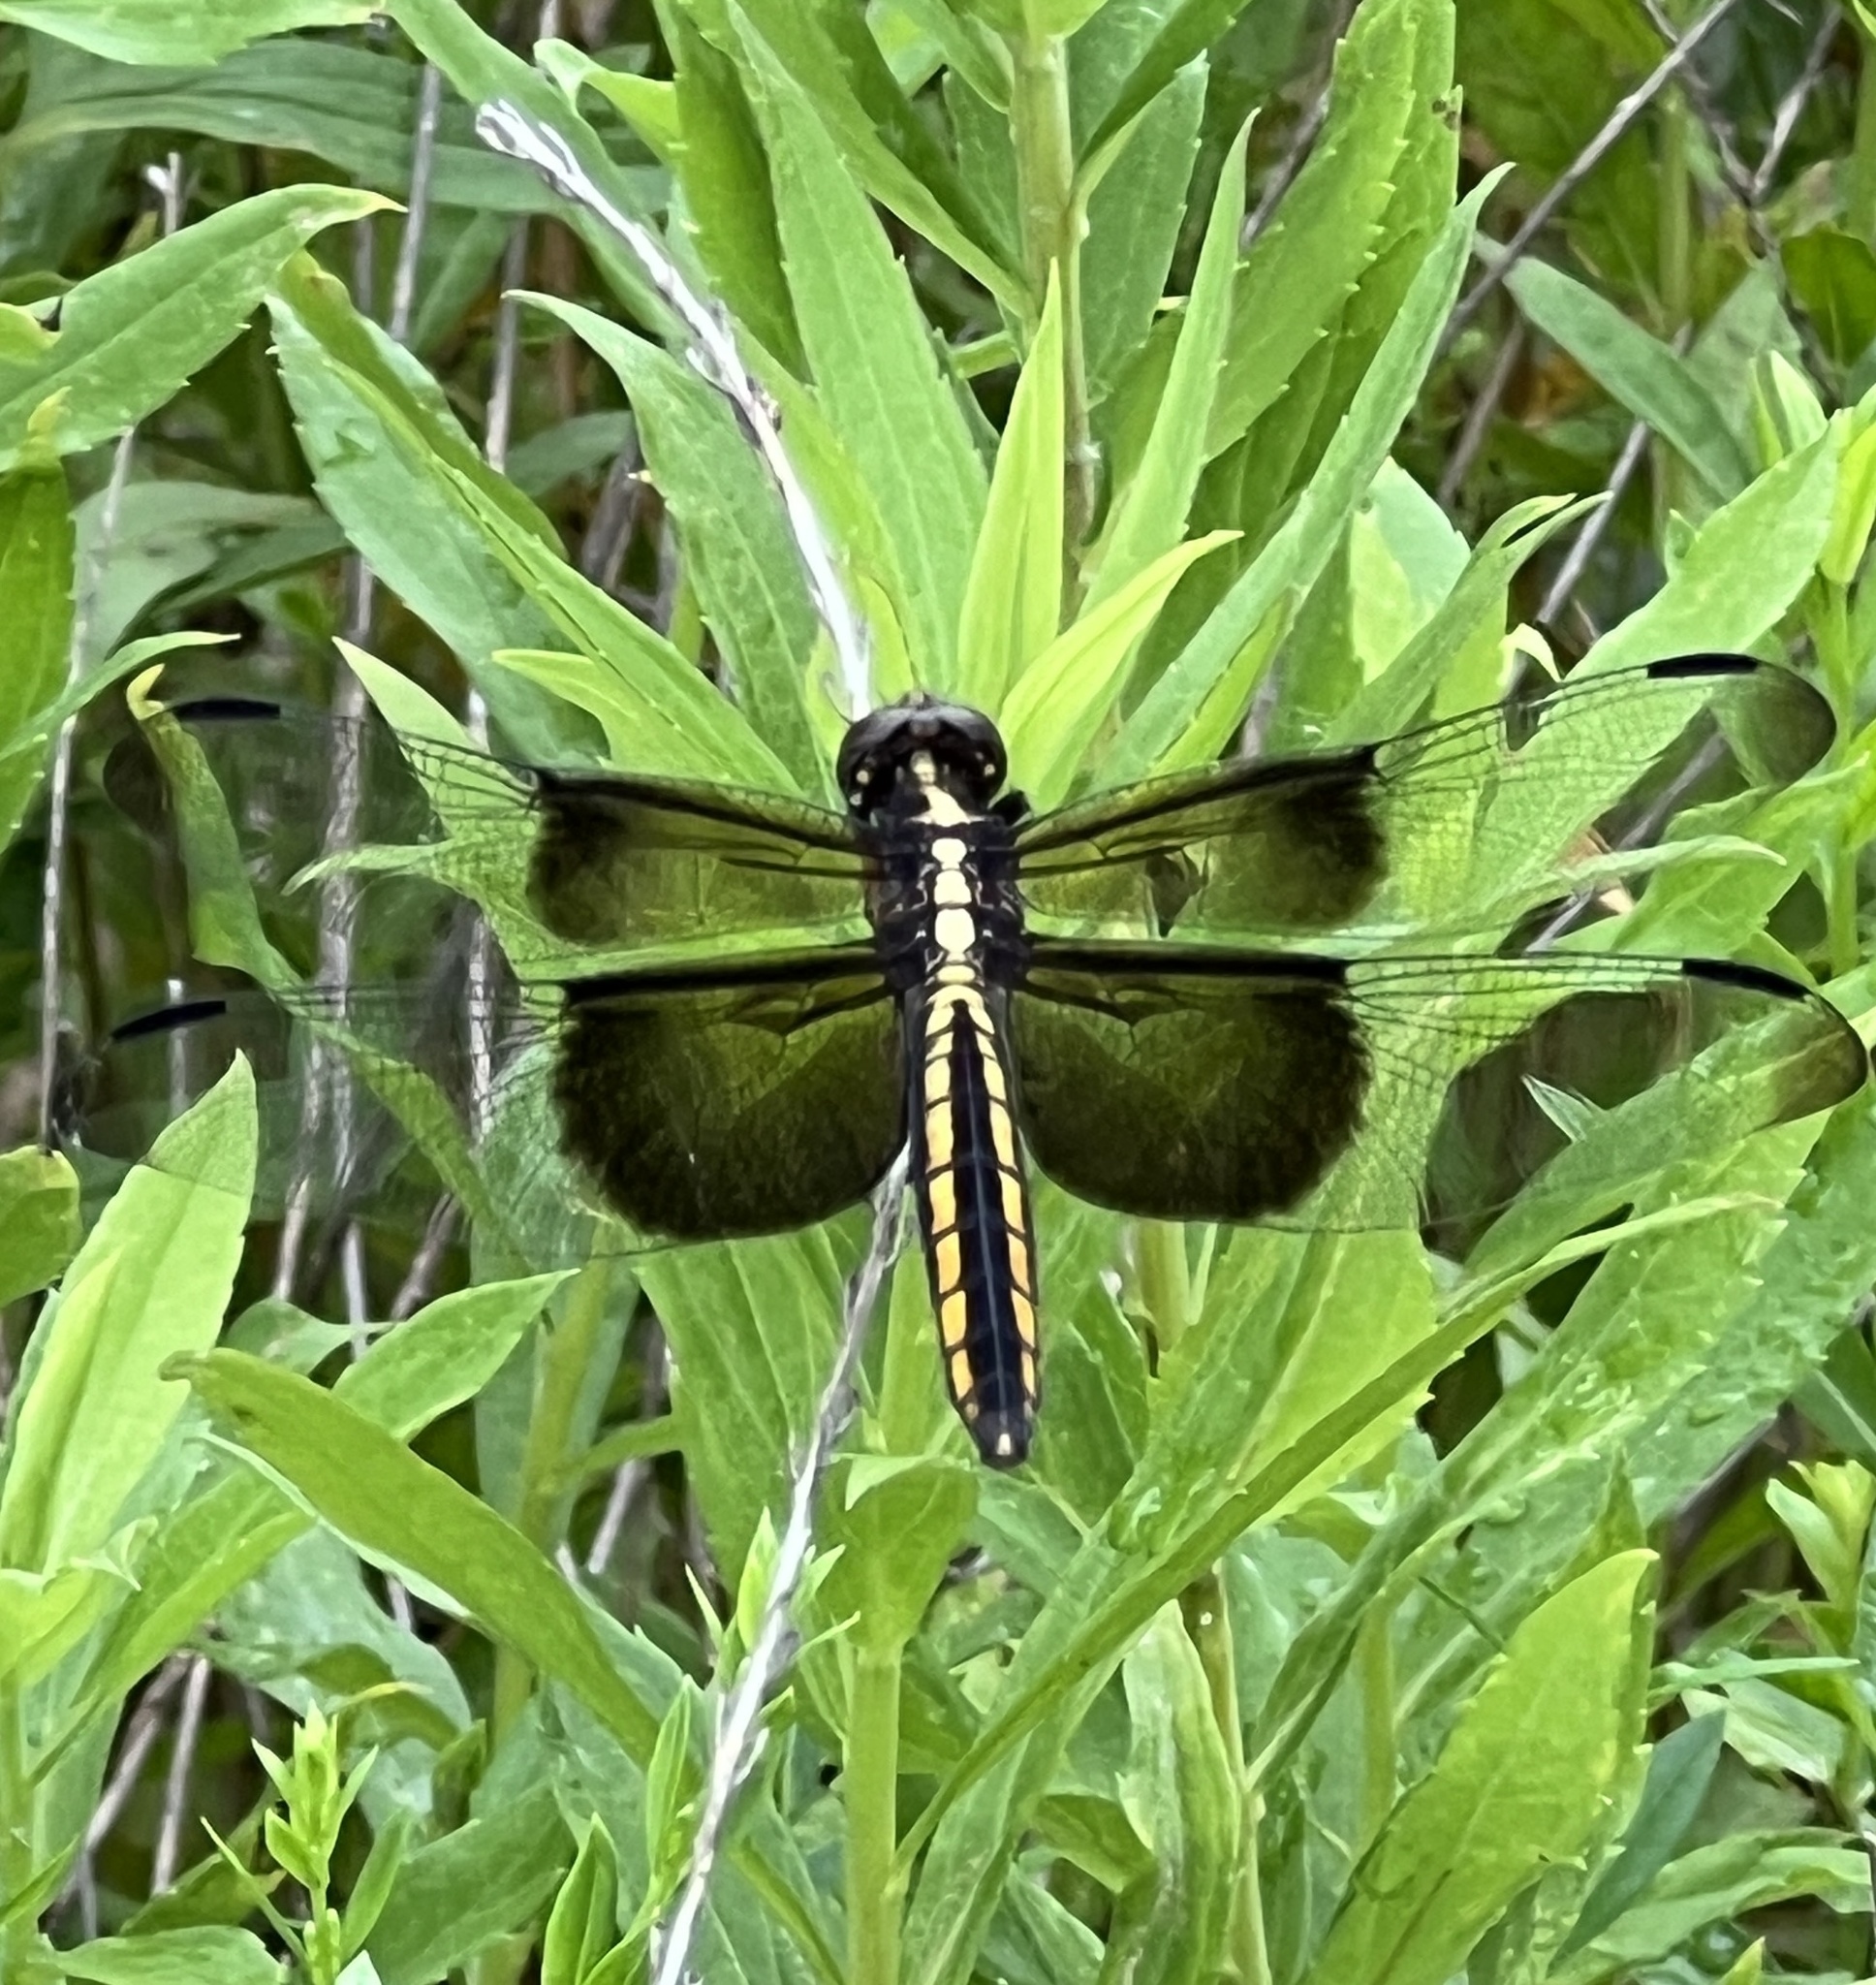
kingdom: Animalia
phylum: Arthropoda
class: Insecta
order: Odonata
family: Libellulidae
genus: Libellula
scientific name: Libellula luctuosa
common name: Widow skimmer
